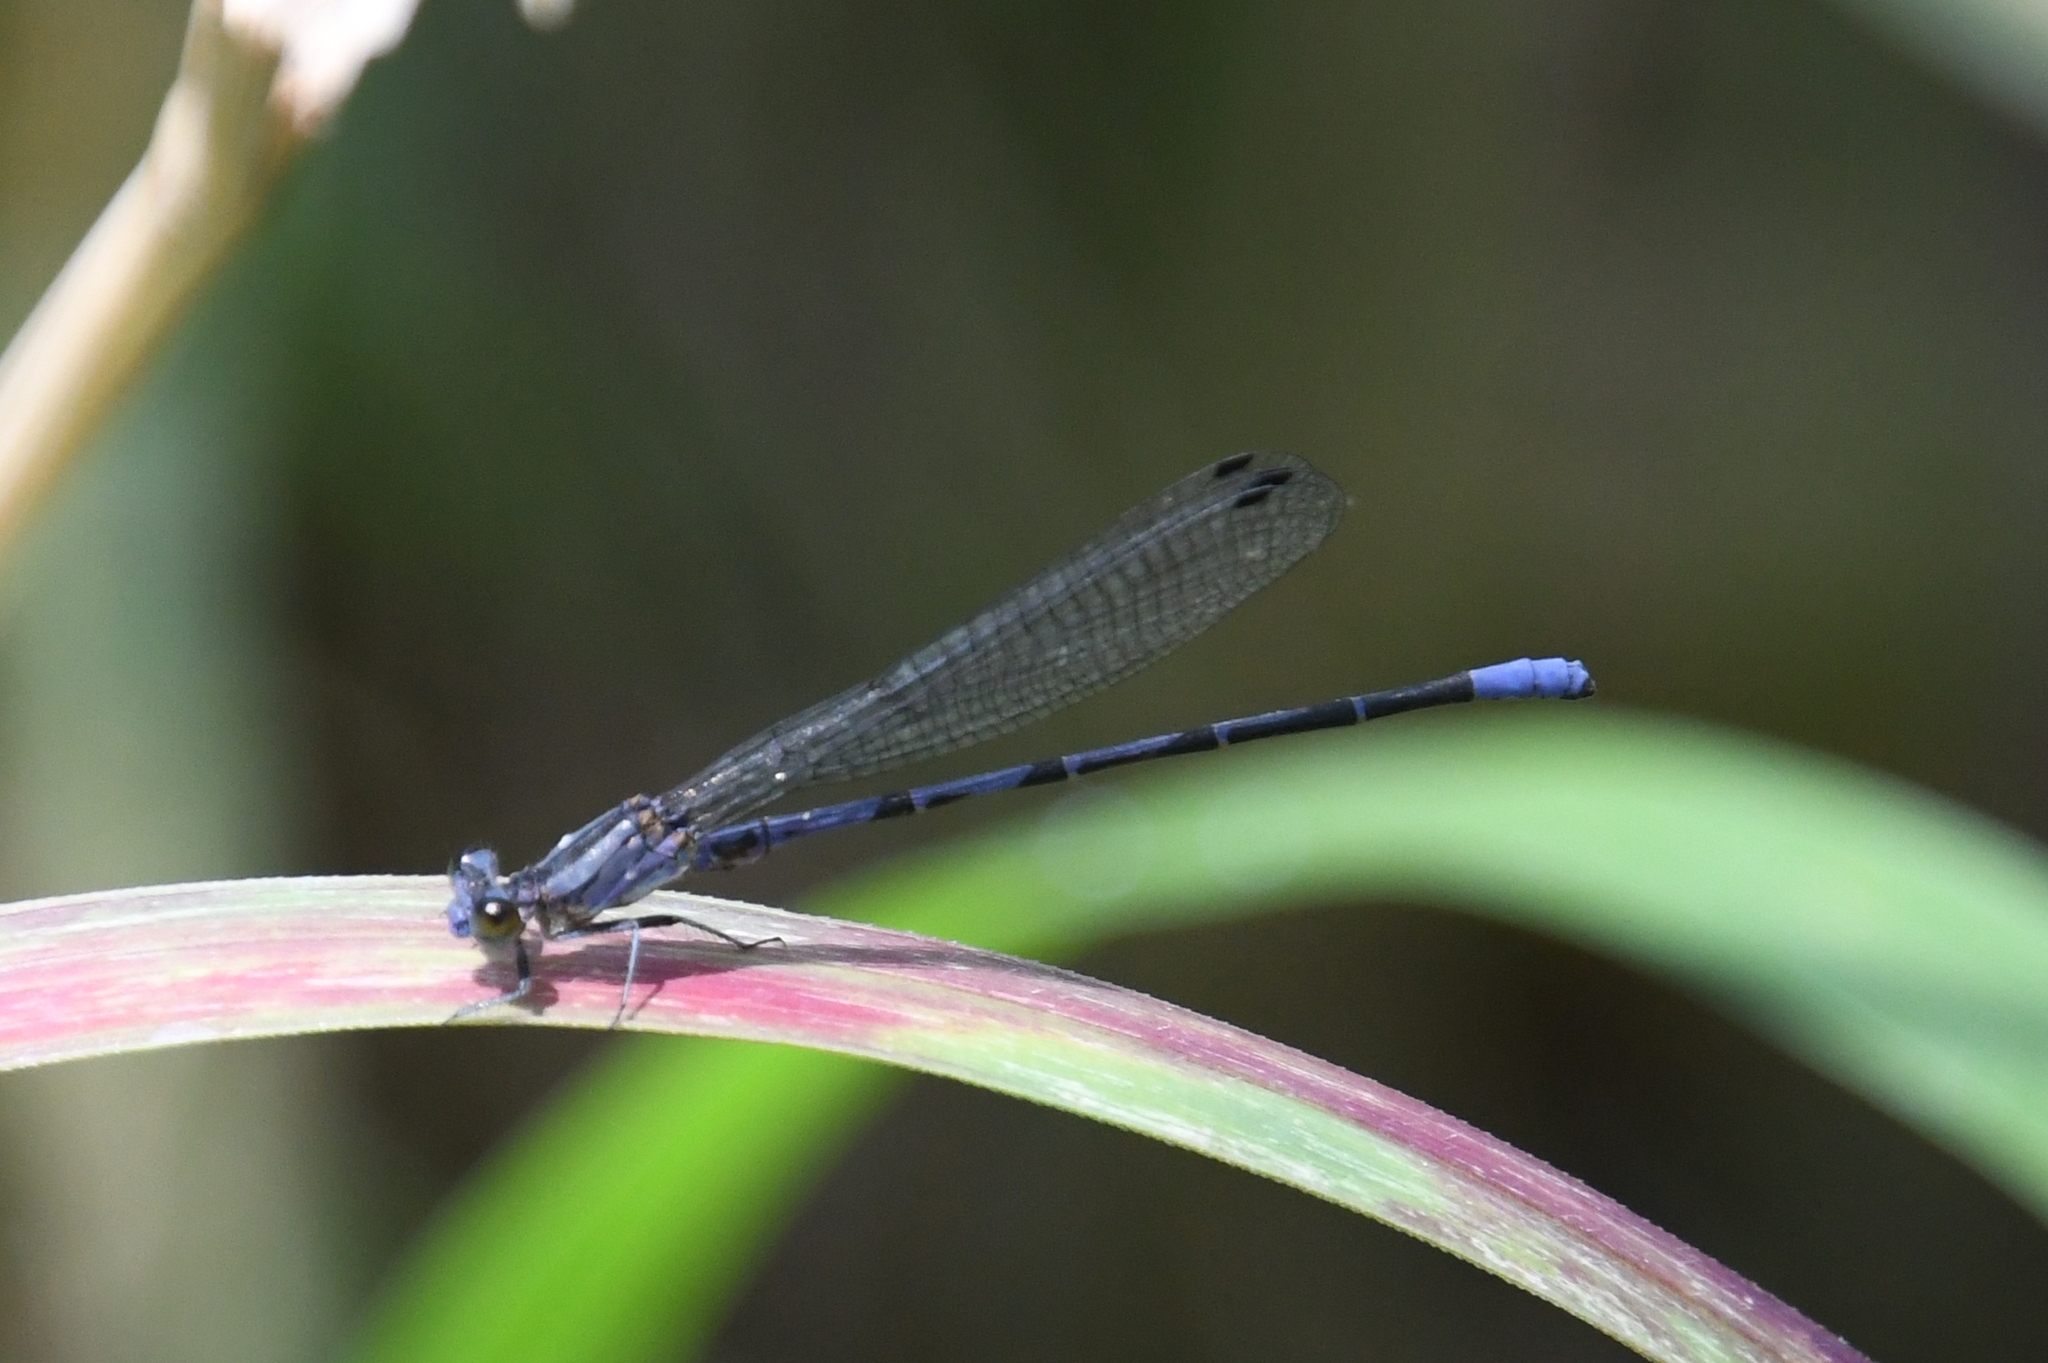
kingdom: Animalia
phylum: Arthropoda
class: Insecta
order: Odonata
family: Coenagrionidae
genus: Argia
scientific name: Argia funebris
